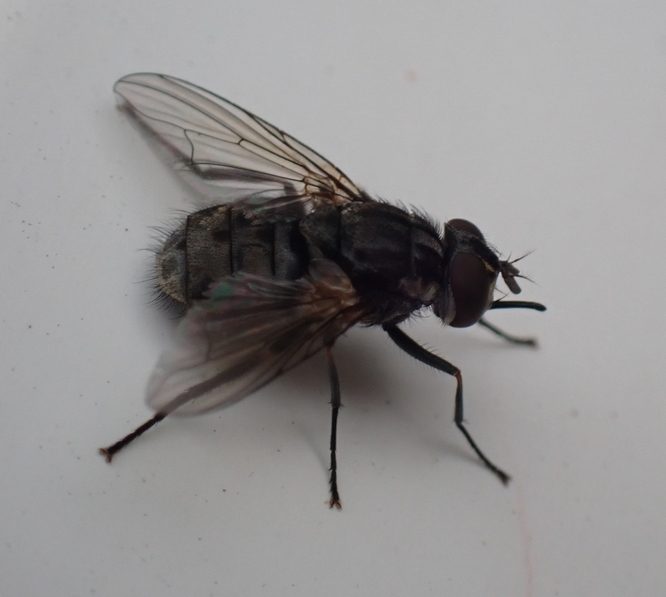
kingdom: Animalia
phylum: Arthropoda
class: Insecta
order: Diptera
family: Muscidae
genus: Stomoxys
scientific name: Stomoxys calcitrans
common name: Stable fly
